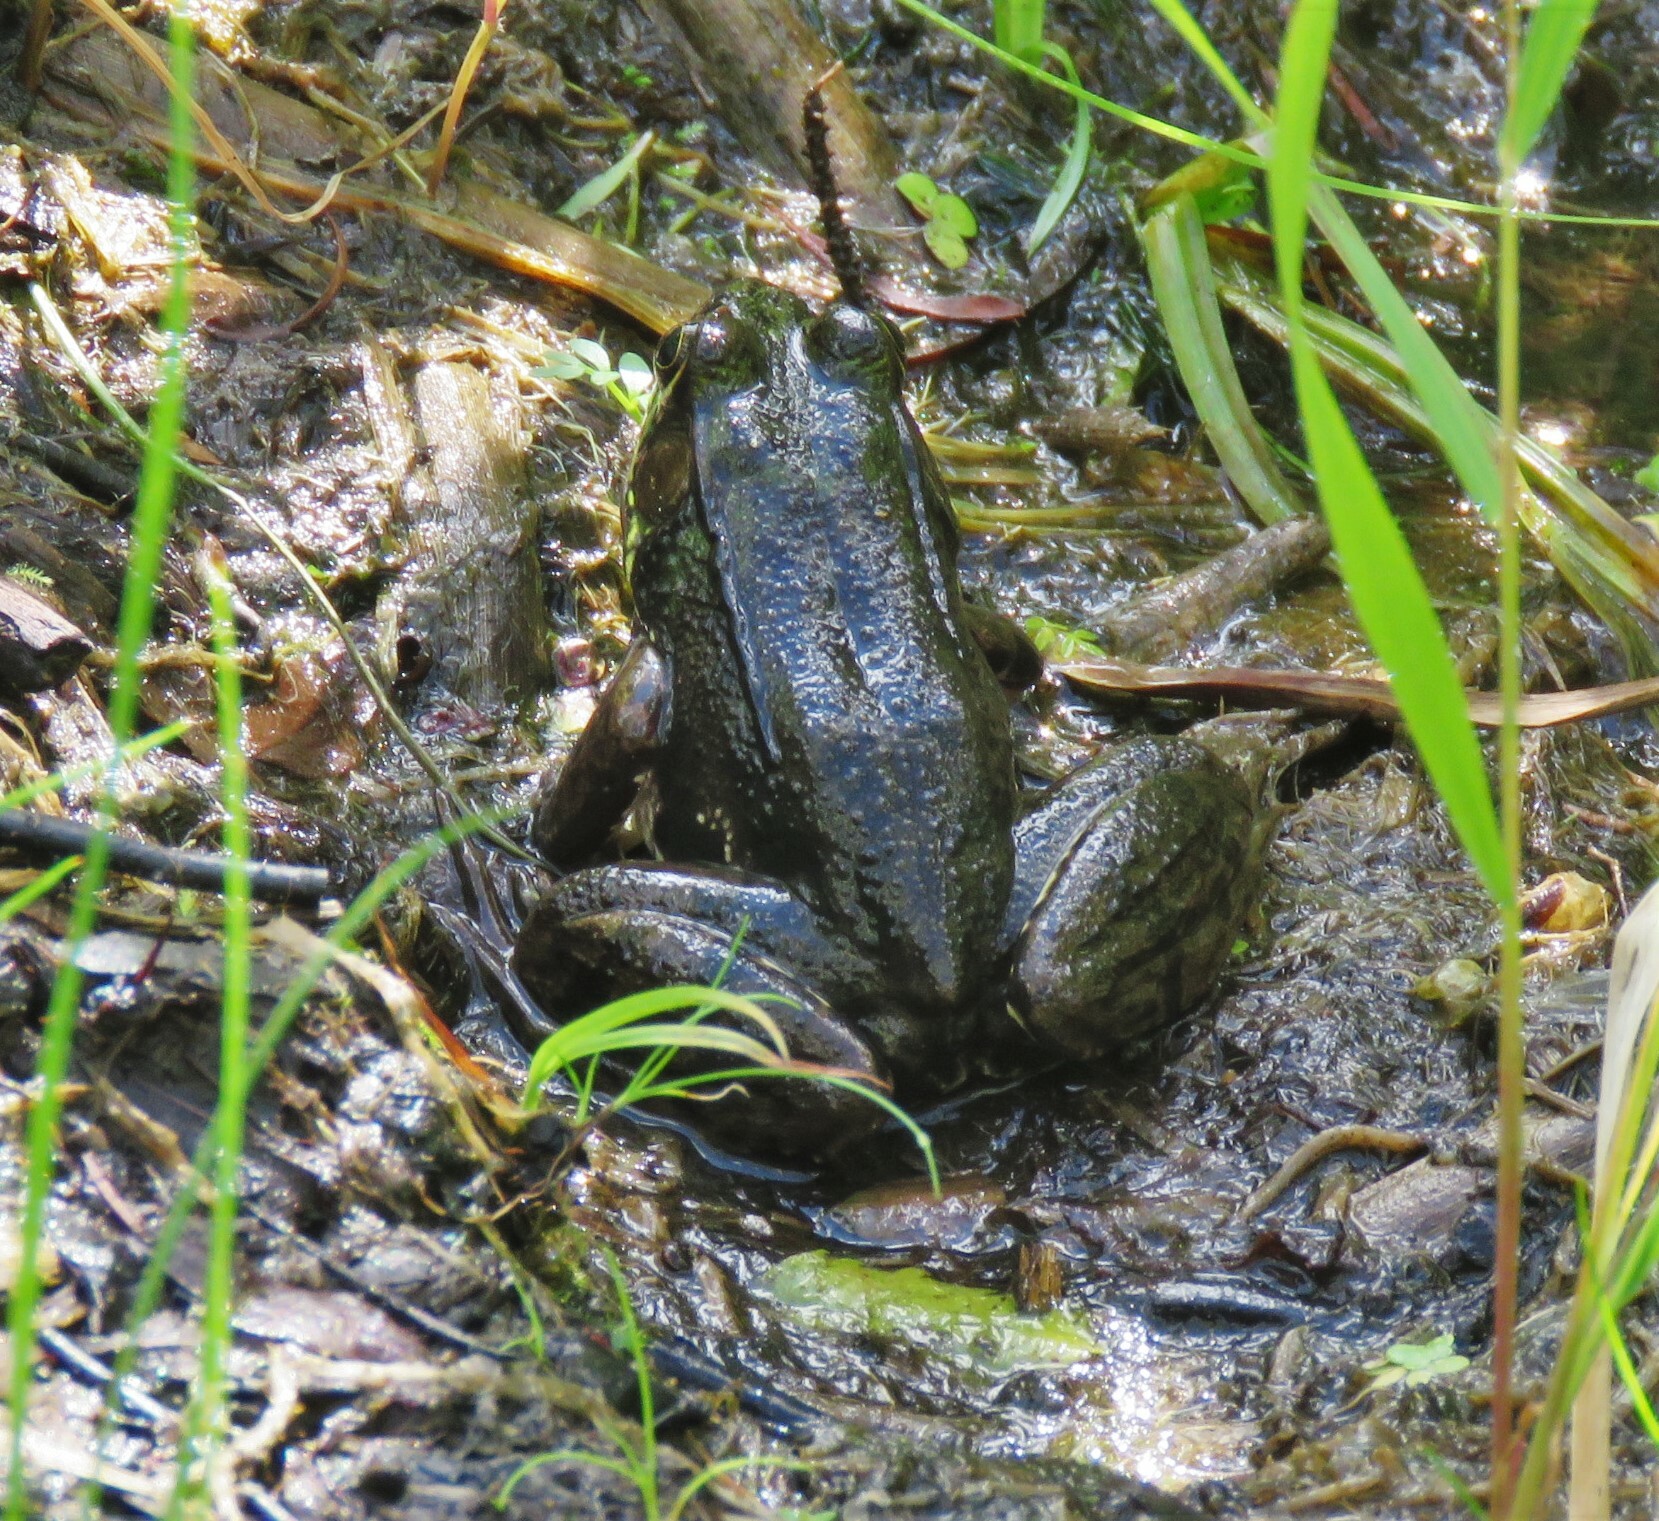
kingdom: Animalia
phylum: Chordata
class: Amphibia
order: Anura
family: Ranidae
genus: Lithobates
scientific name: Lithobates clamitans
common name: Green frog
